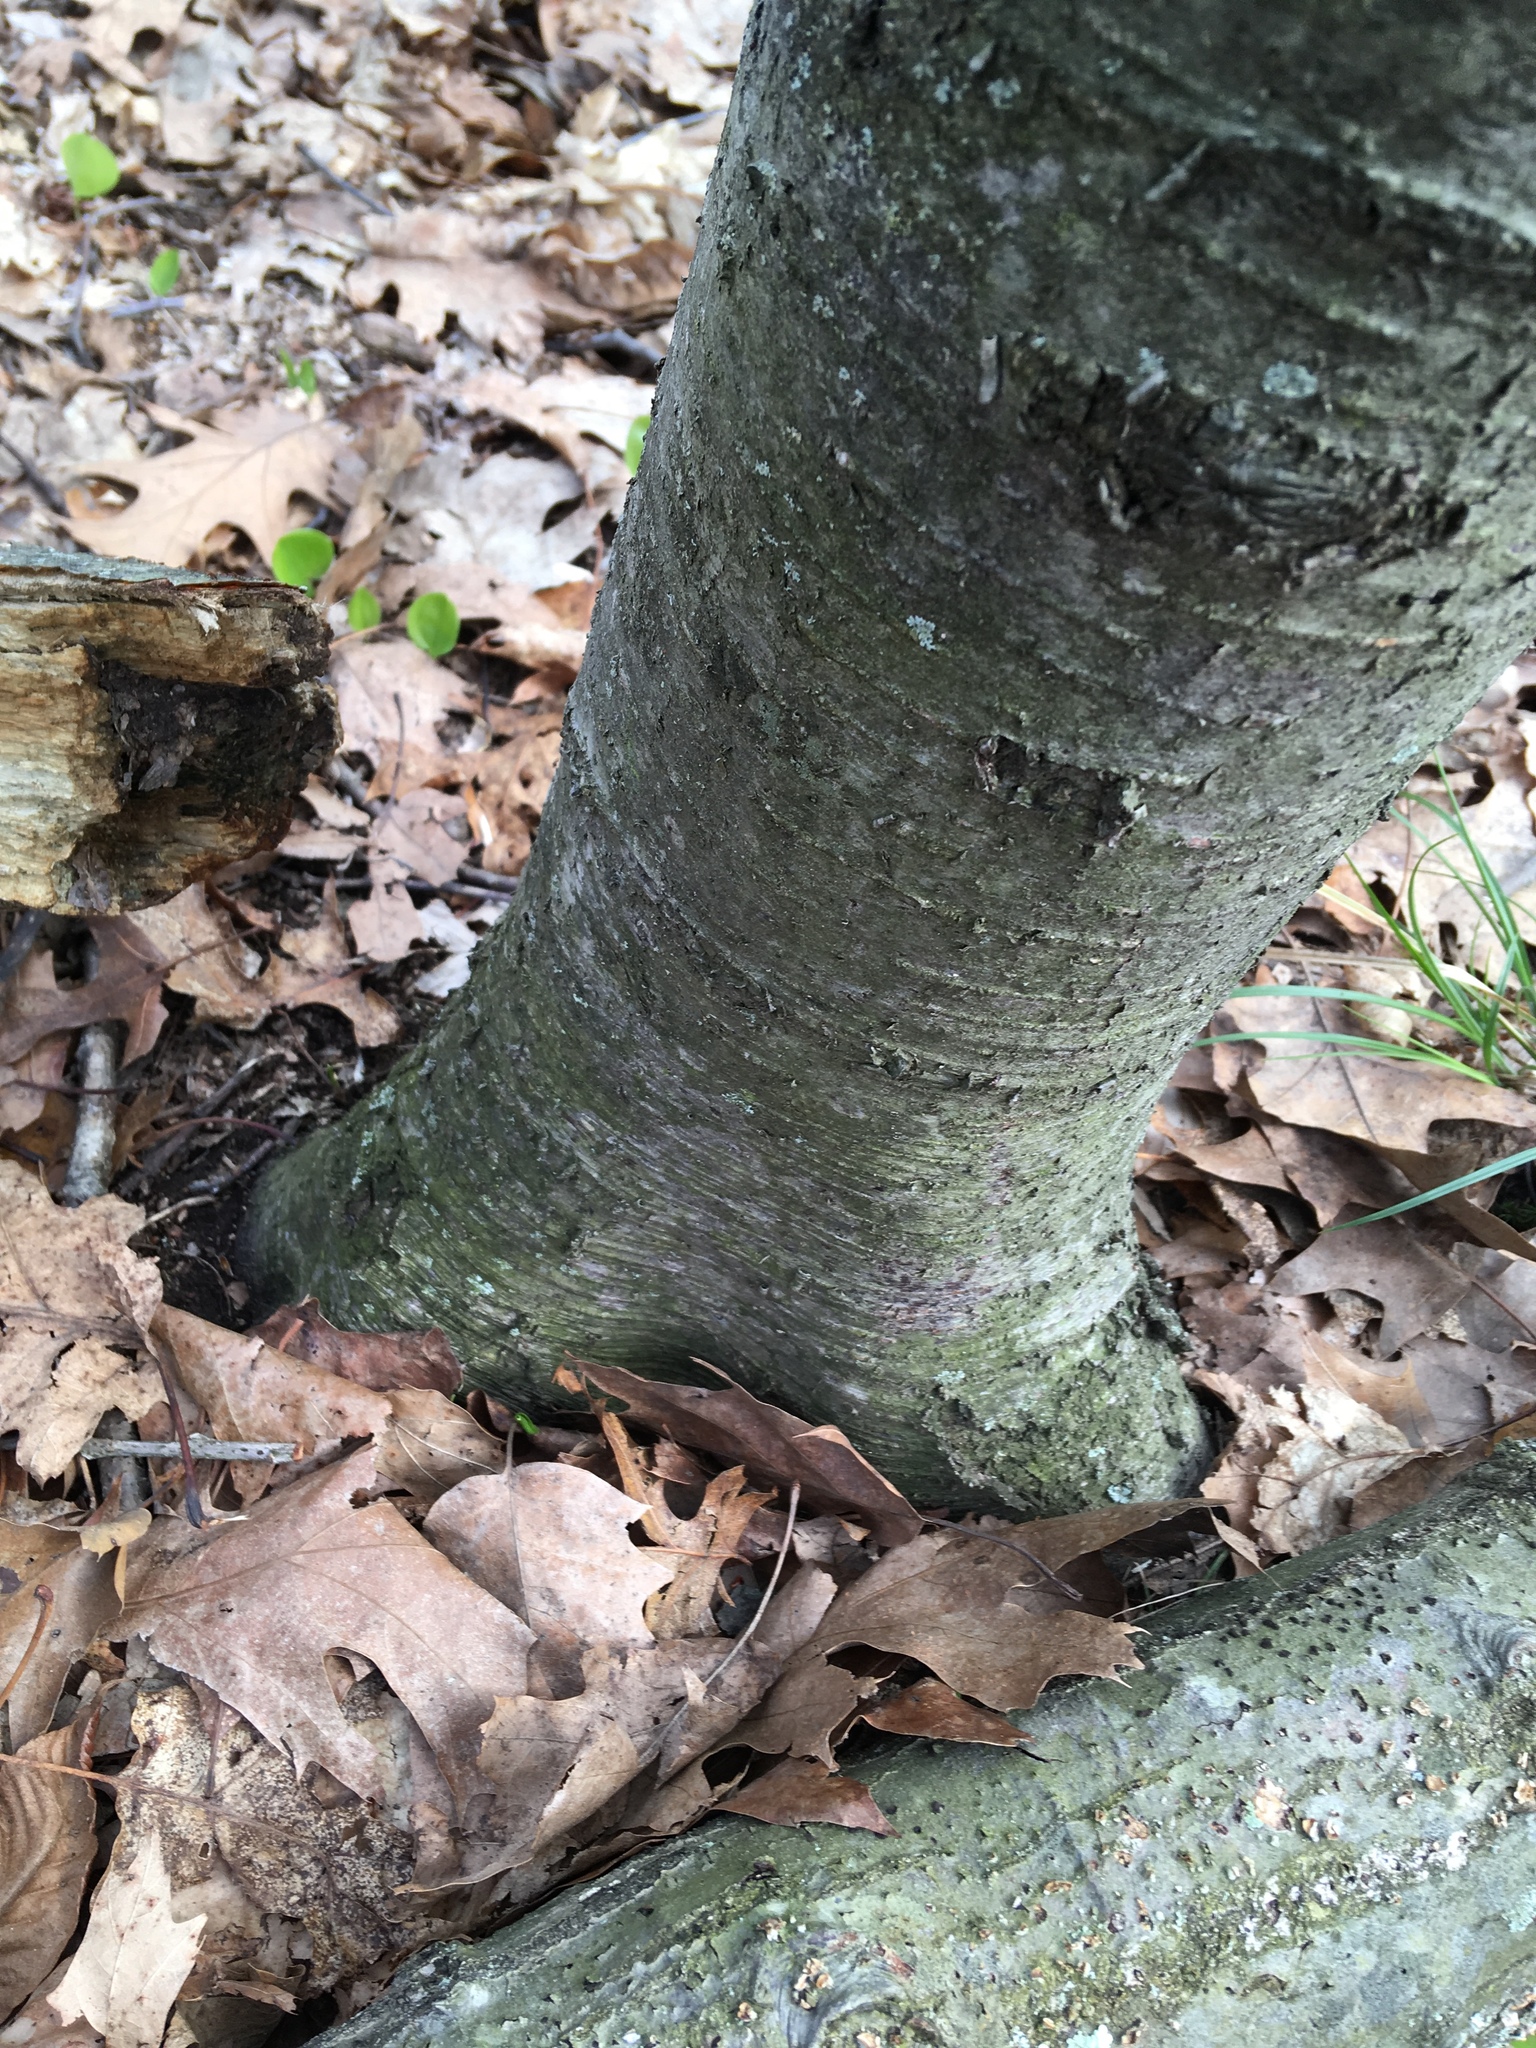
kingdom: Plantae
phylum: Tracheophyta
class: Magnoliopsida
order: Fagales
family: Betulaceae
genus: Betula
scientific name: Betula lenta
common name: Black birch
